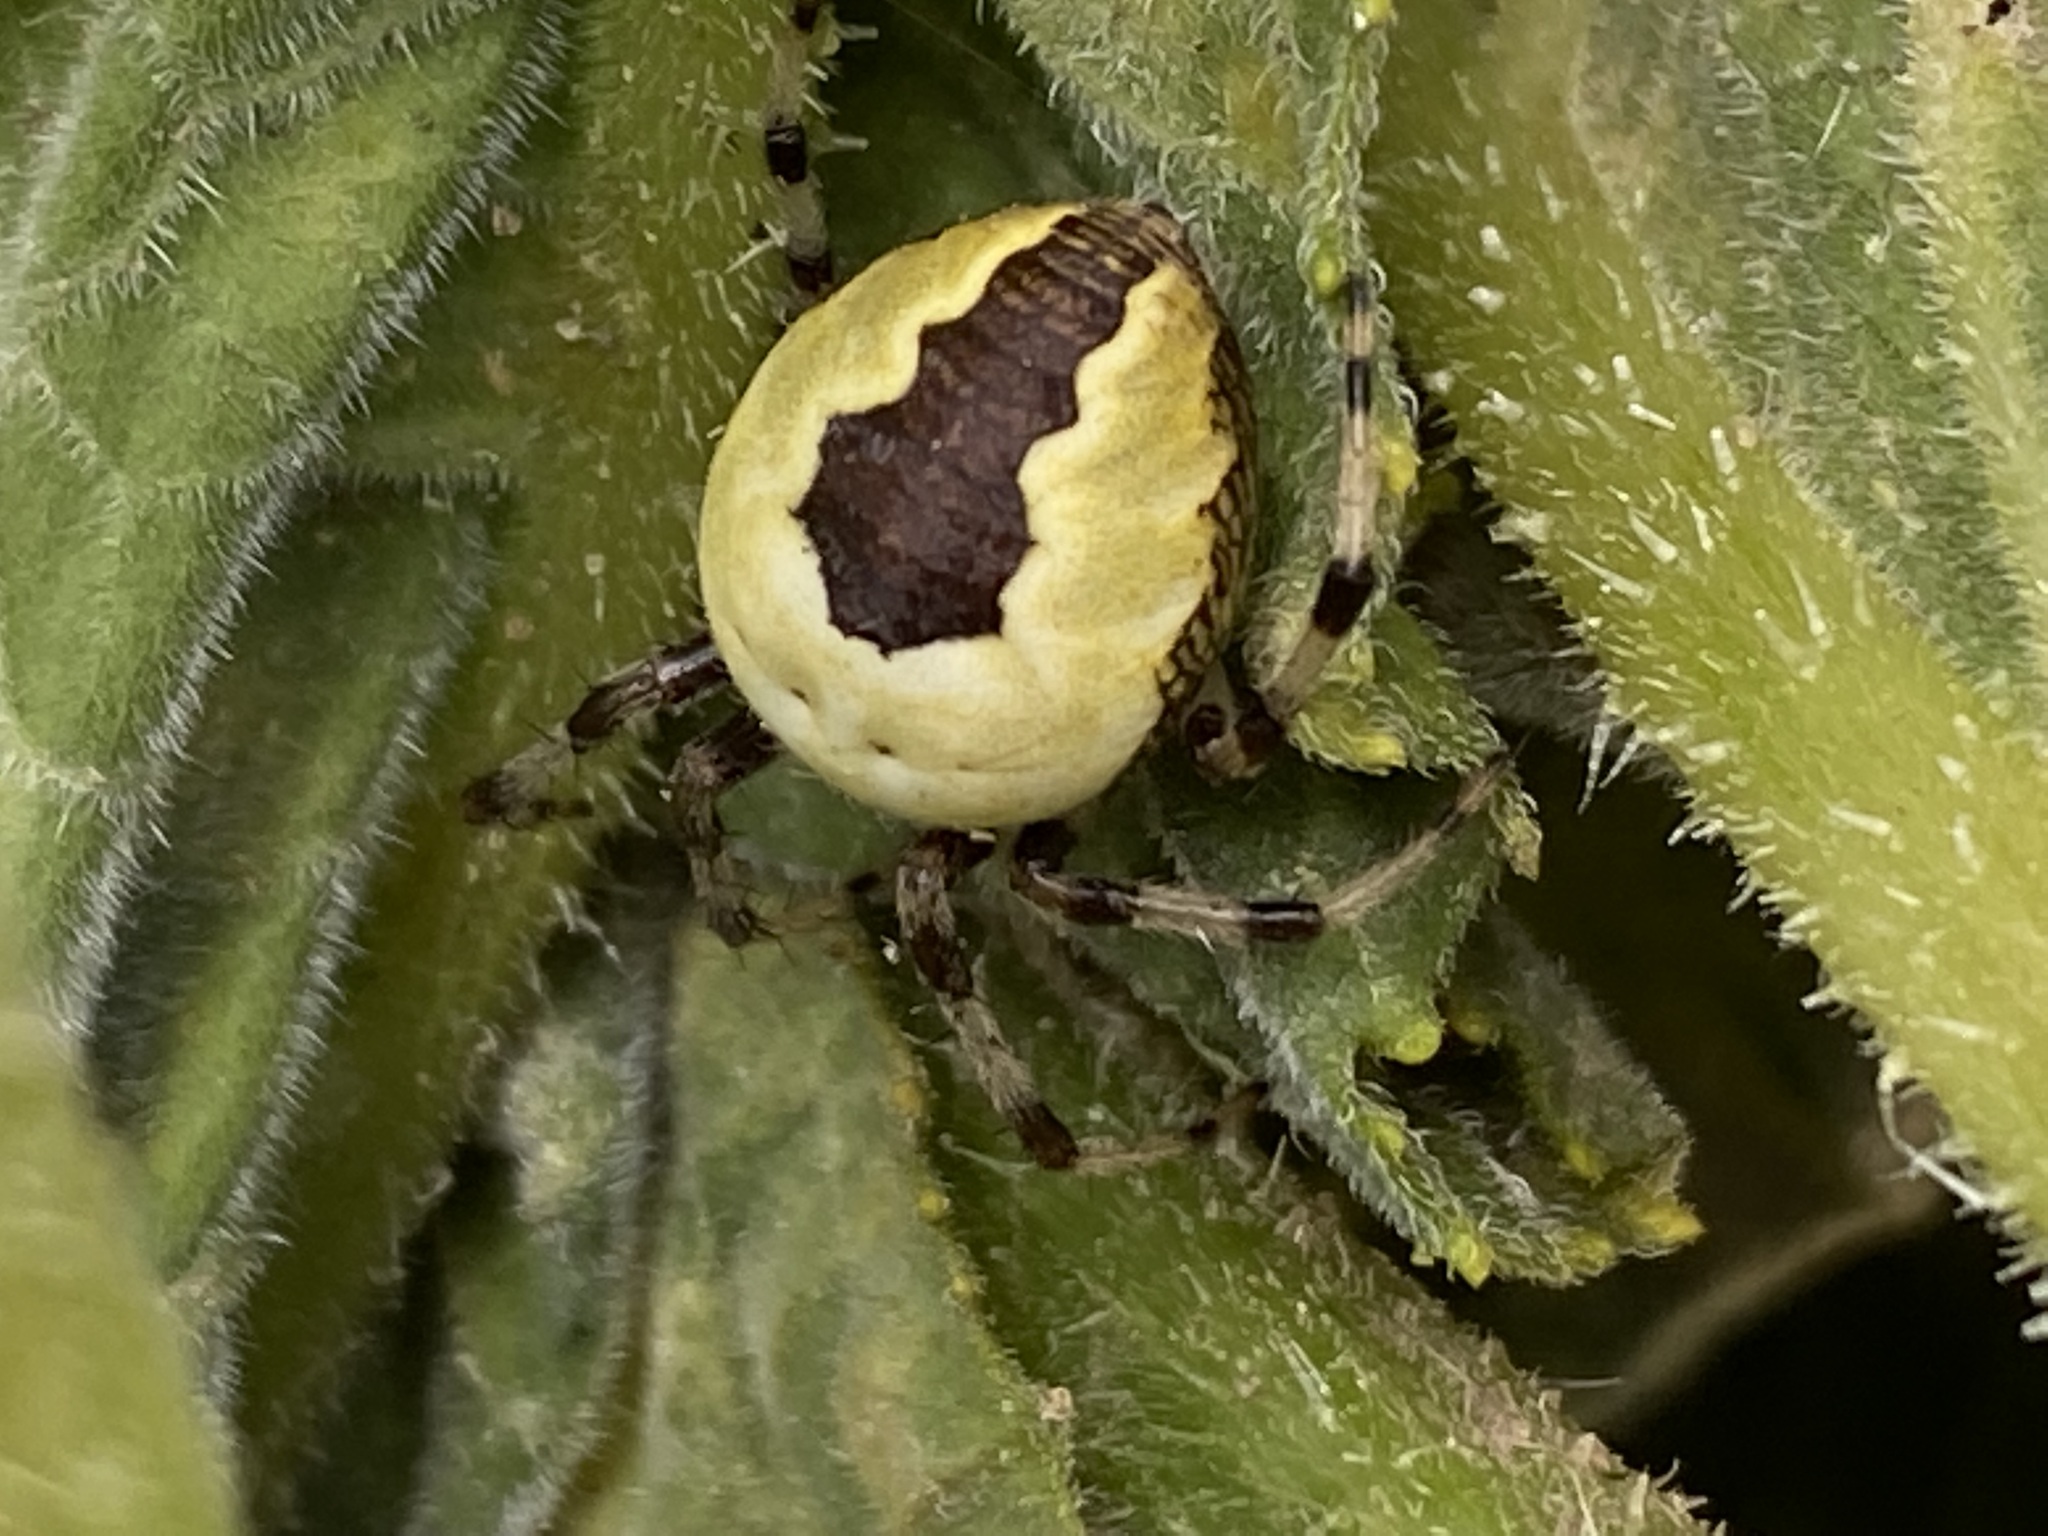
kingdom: Animalia
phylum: Arthropoda
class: Arachnida
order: Araneae
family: Araneidae
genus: Araneus
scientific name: Araneus marmoreus
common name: Marbled orbweaver
